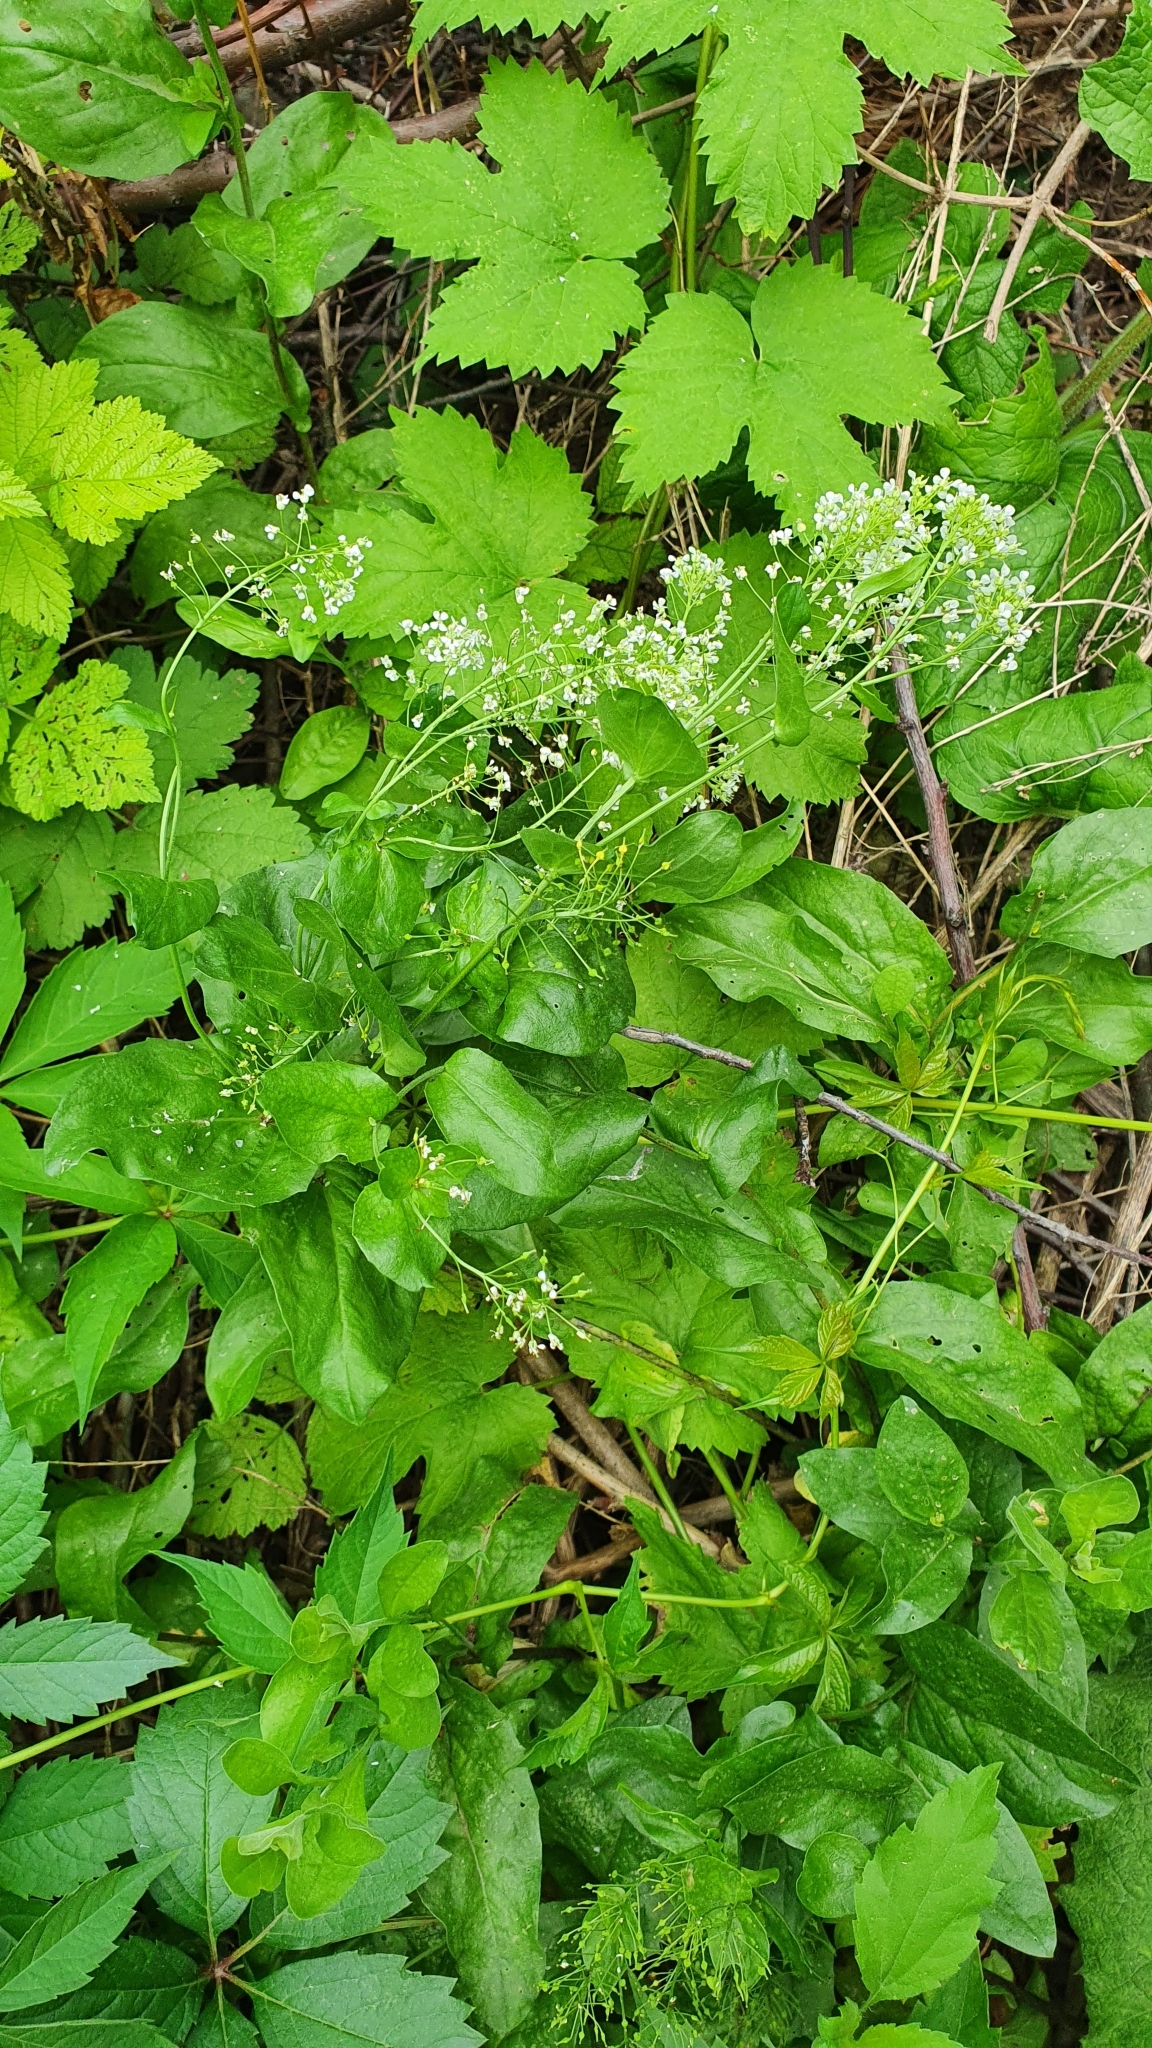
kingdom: Plantae
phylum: Tracheophyta
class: Magnoliopsida
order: Brassicales
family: Brassicaceae
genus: Lepidium
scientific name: Lepidium draba
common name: Hoary cress
